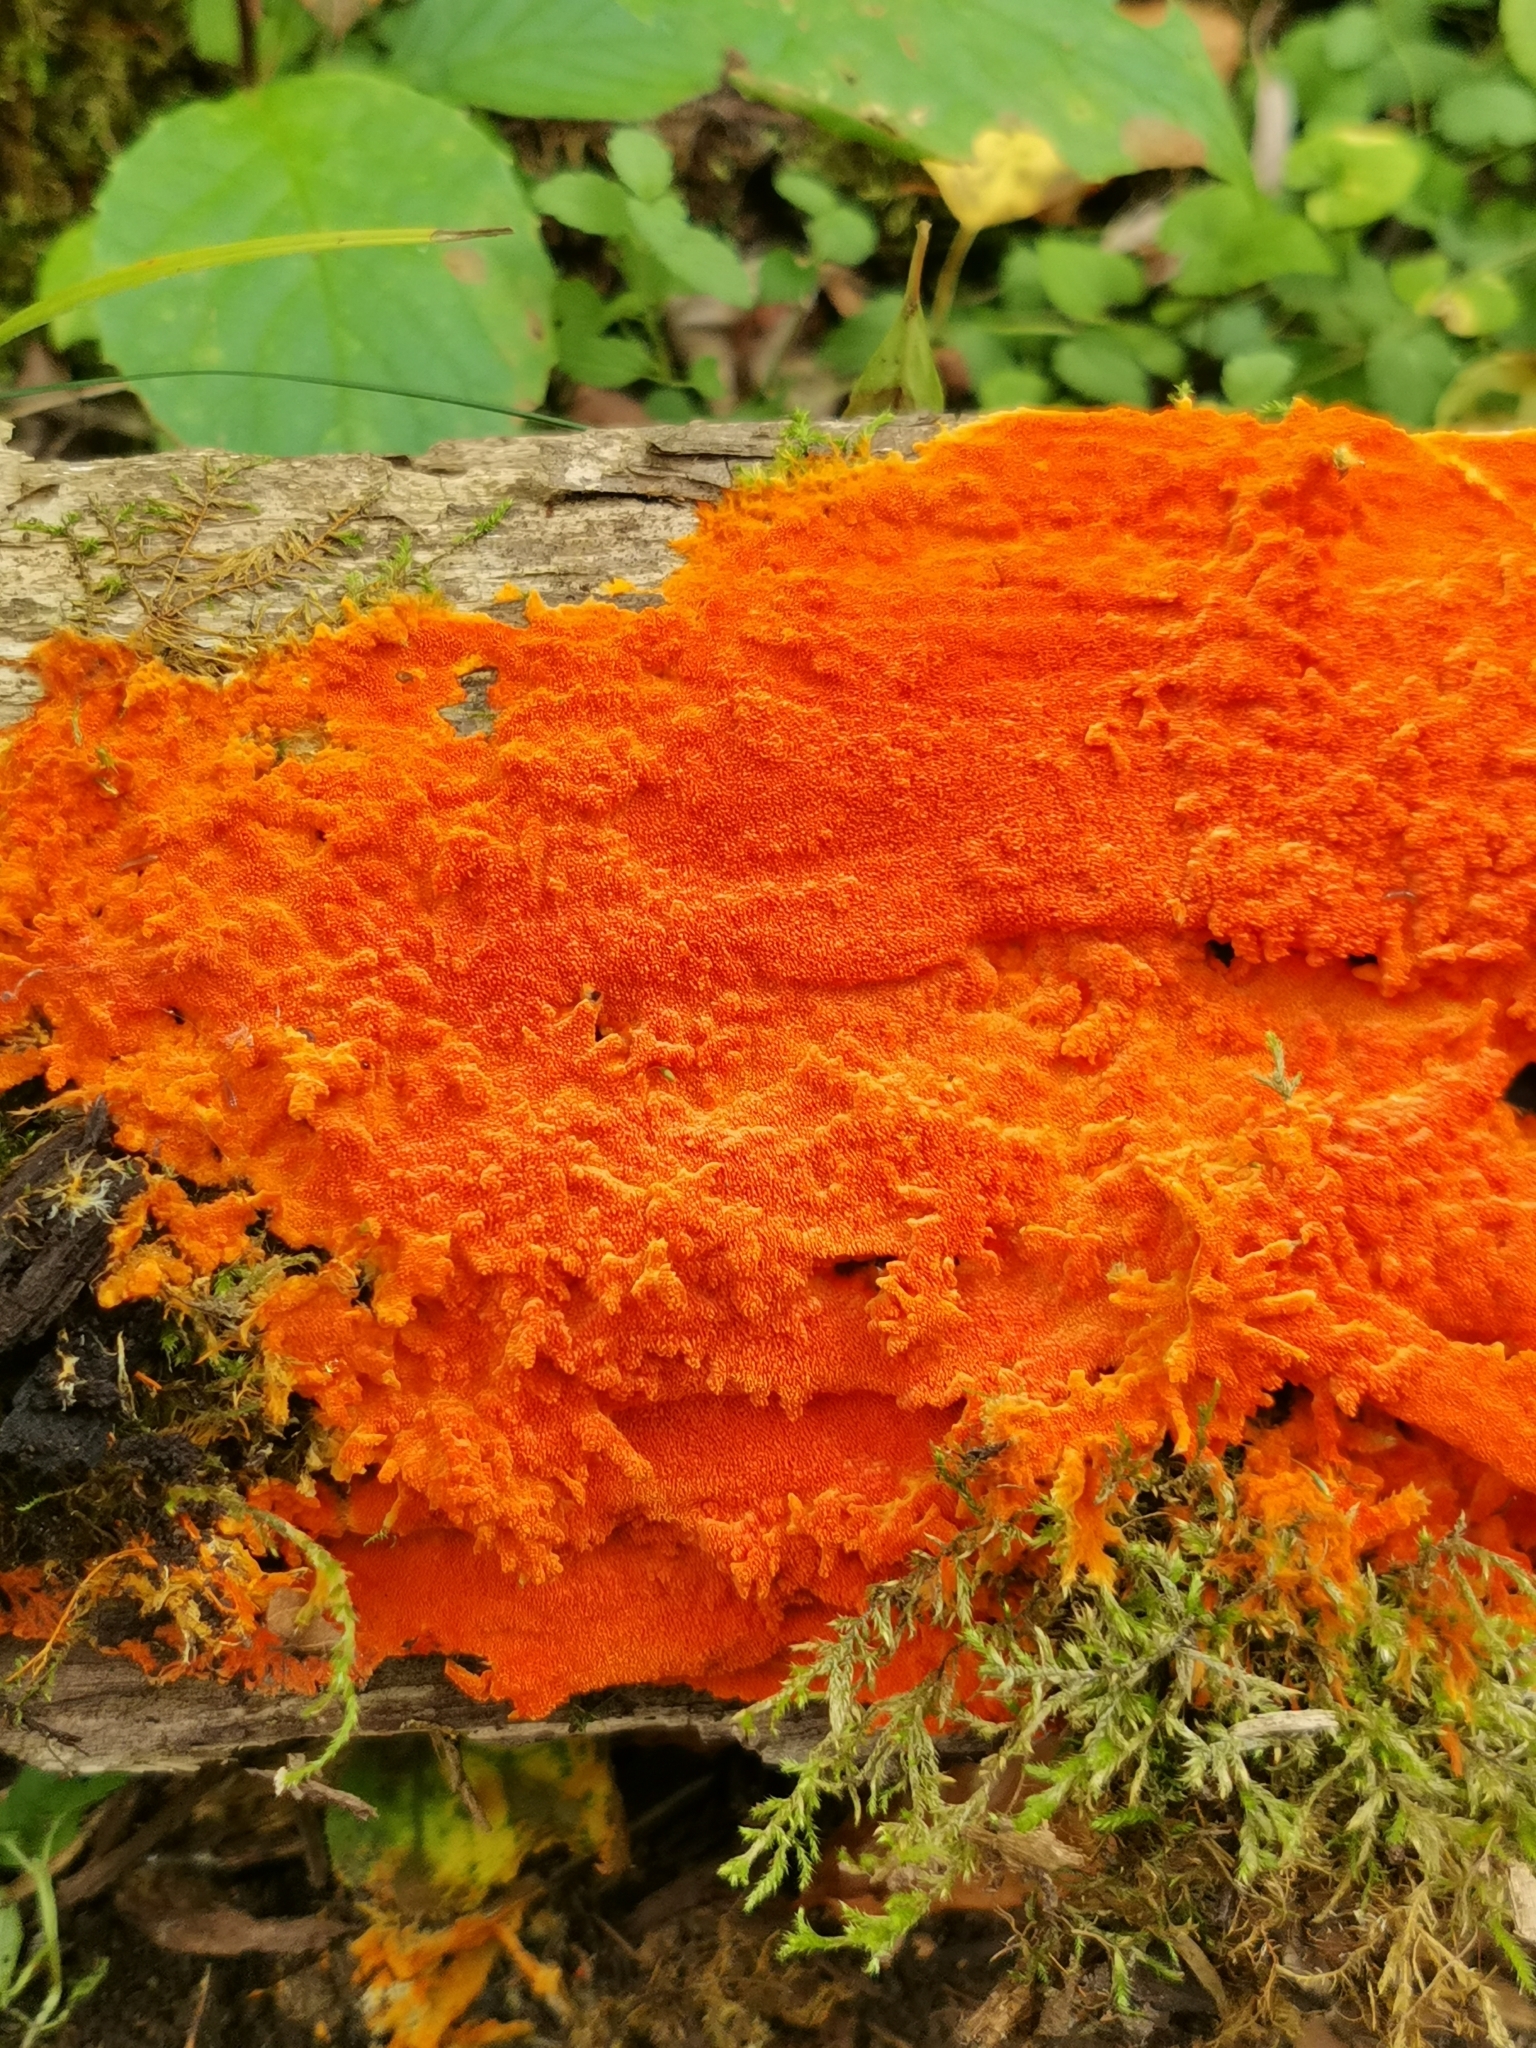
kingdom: Fungi
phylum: Basidiomycota
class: Agaricomycetes
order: Polyporales
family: Meruliaceae
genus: Hydnophlebia
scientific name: Hydnophlebia chrysorhiza
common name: Spreading yellow tooth
